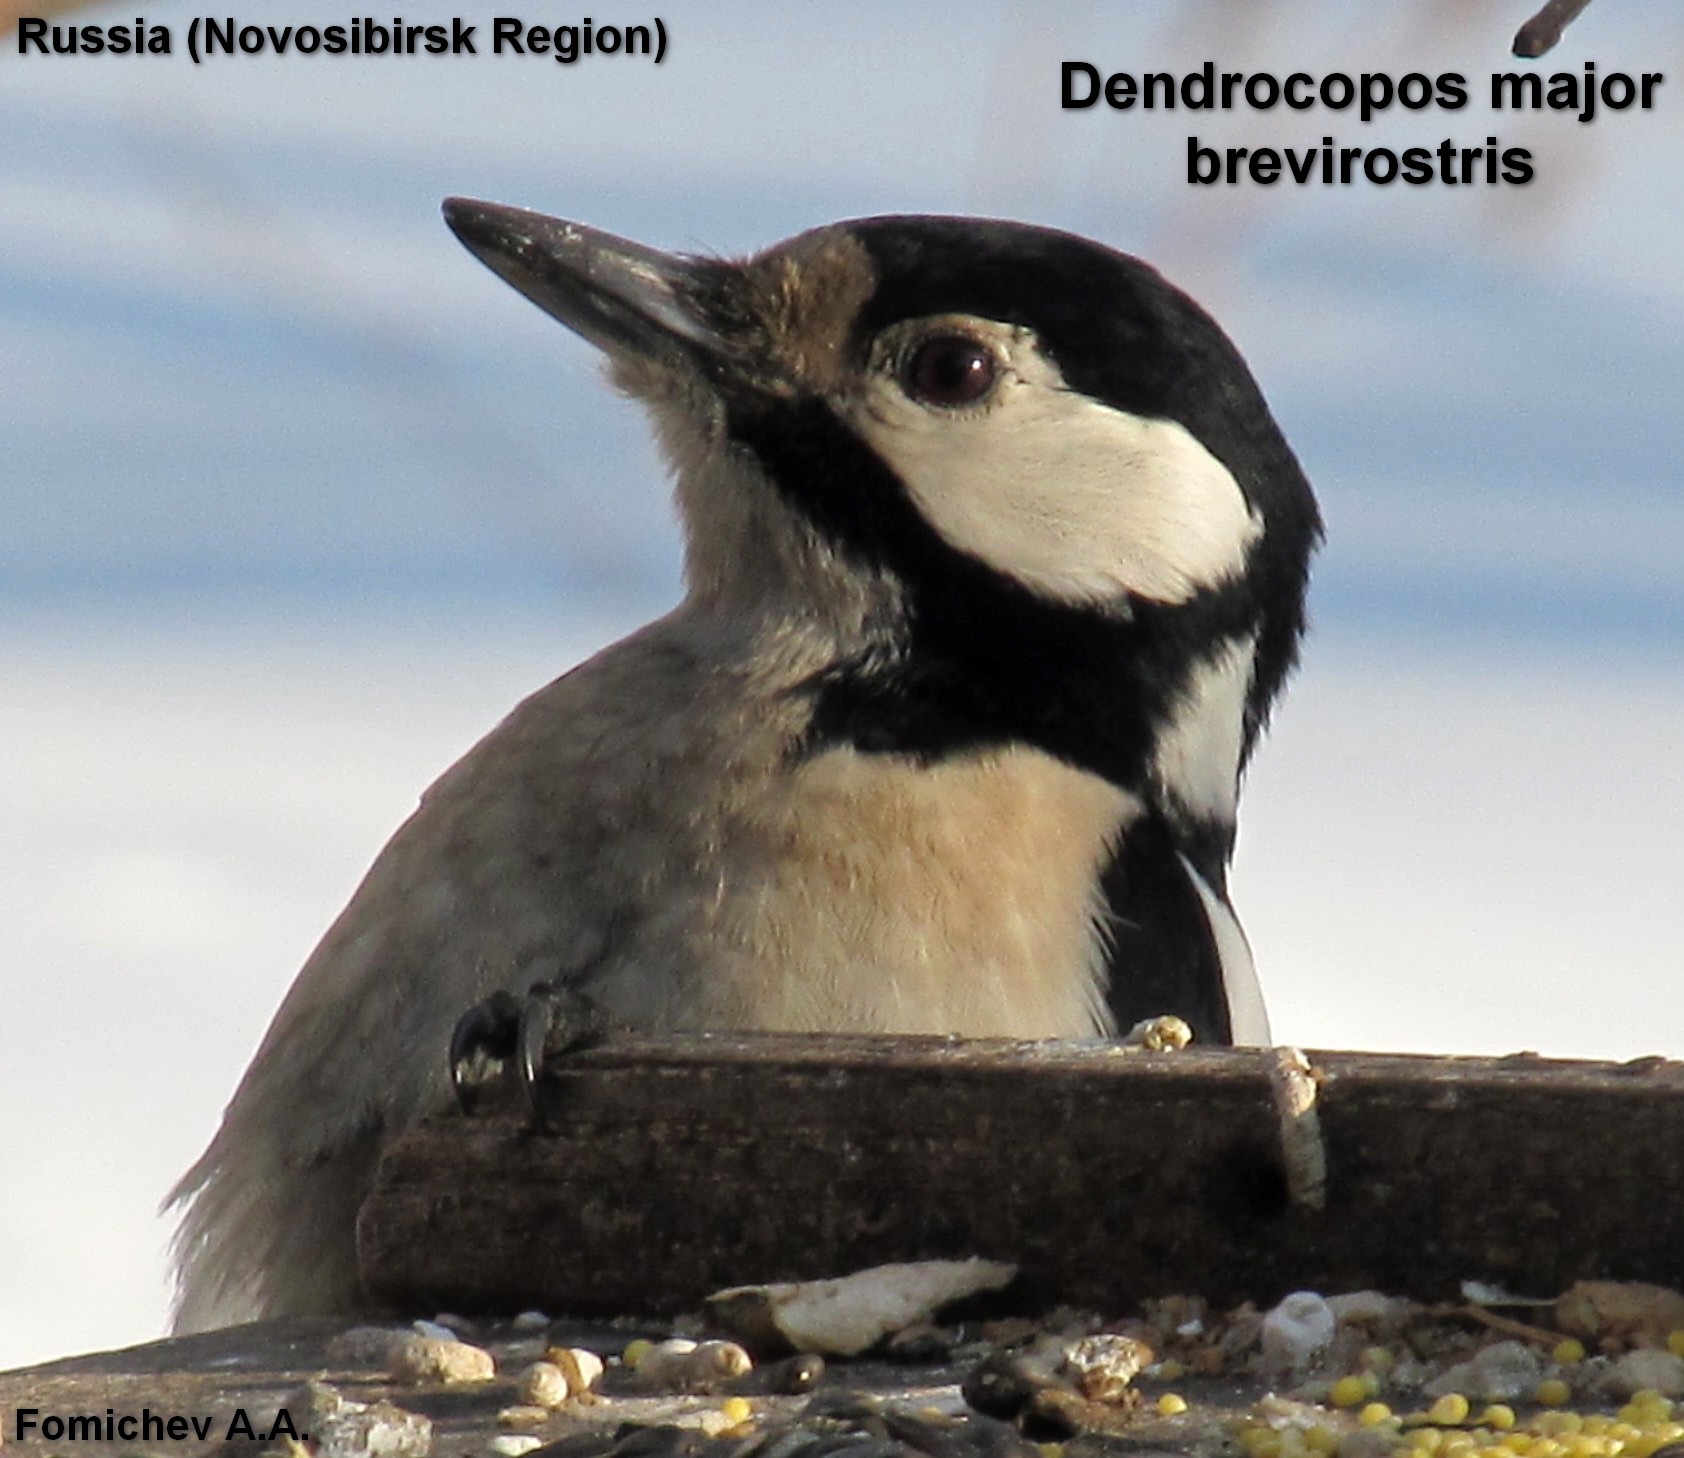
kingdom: Animalia
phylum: Chordata
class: Aves
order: Piciformes
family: Picidae
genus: Dendrocopos
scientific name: Dendrocopos major
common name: Great spotted woodpecker
